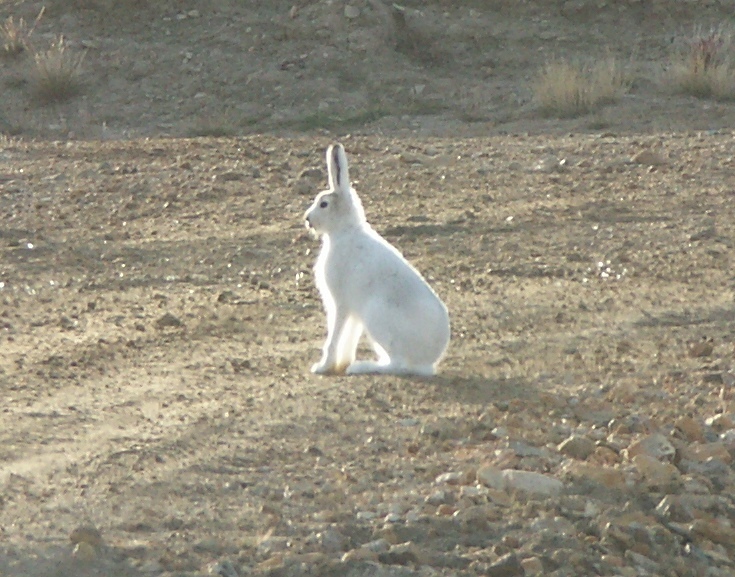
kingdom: Animalia
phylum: Chordata
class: Mammalia
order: Lagomorpha
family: Leporidae
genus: Lepus
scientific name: Lepus arcticus
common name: Arctic hare
